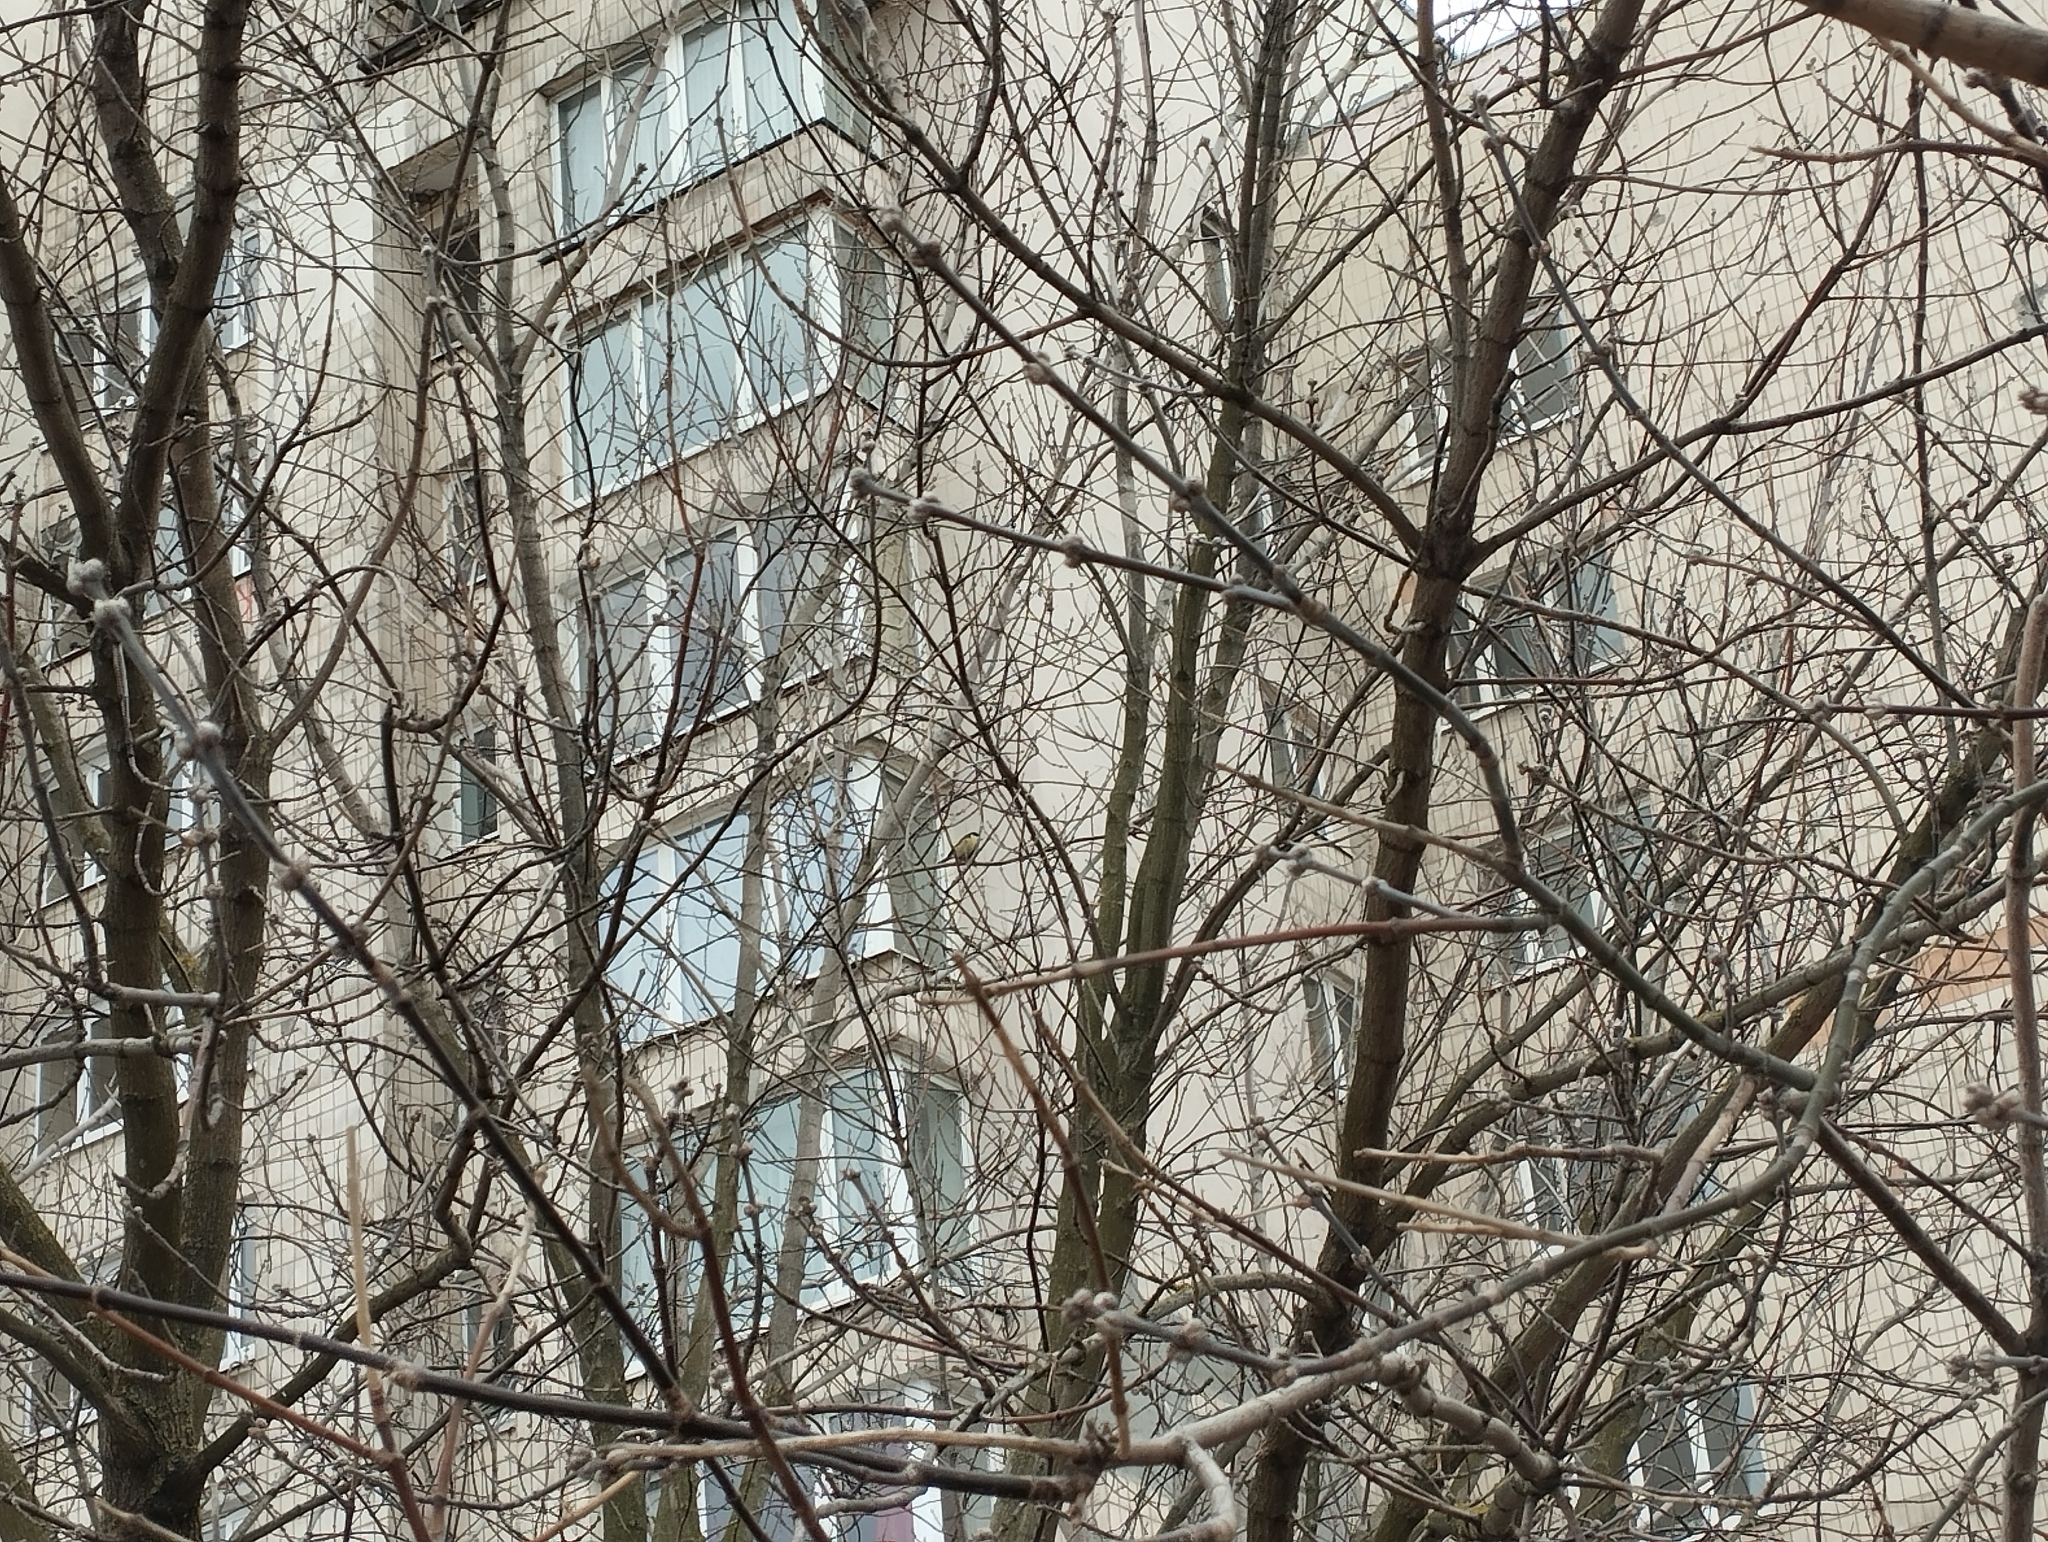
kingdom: Animalia
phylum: Chordata
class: Aves
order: Passeriformes
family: Paridae
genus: Parus
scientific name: Parus major
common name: Great tit
